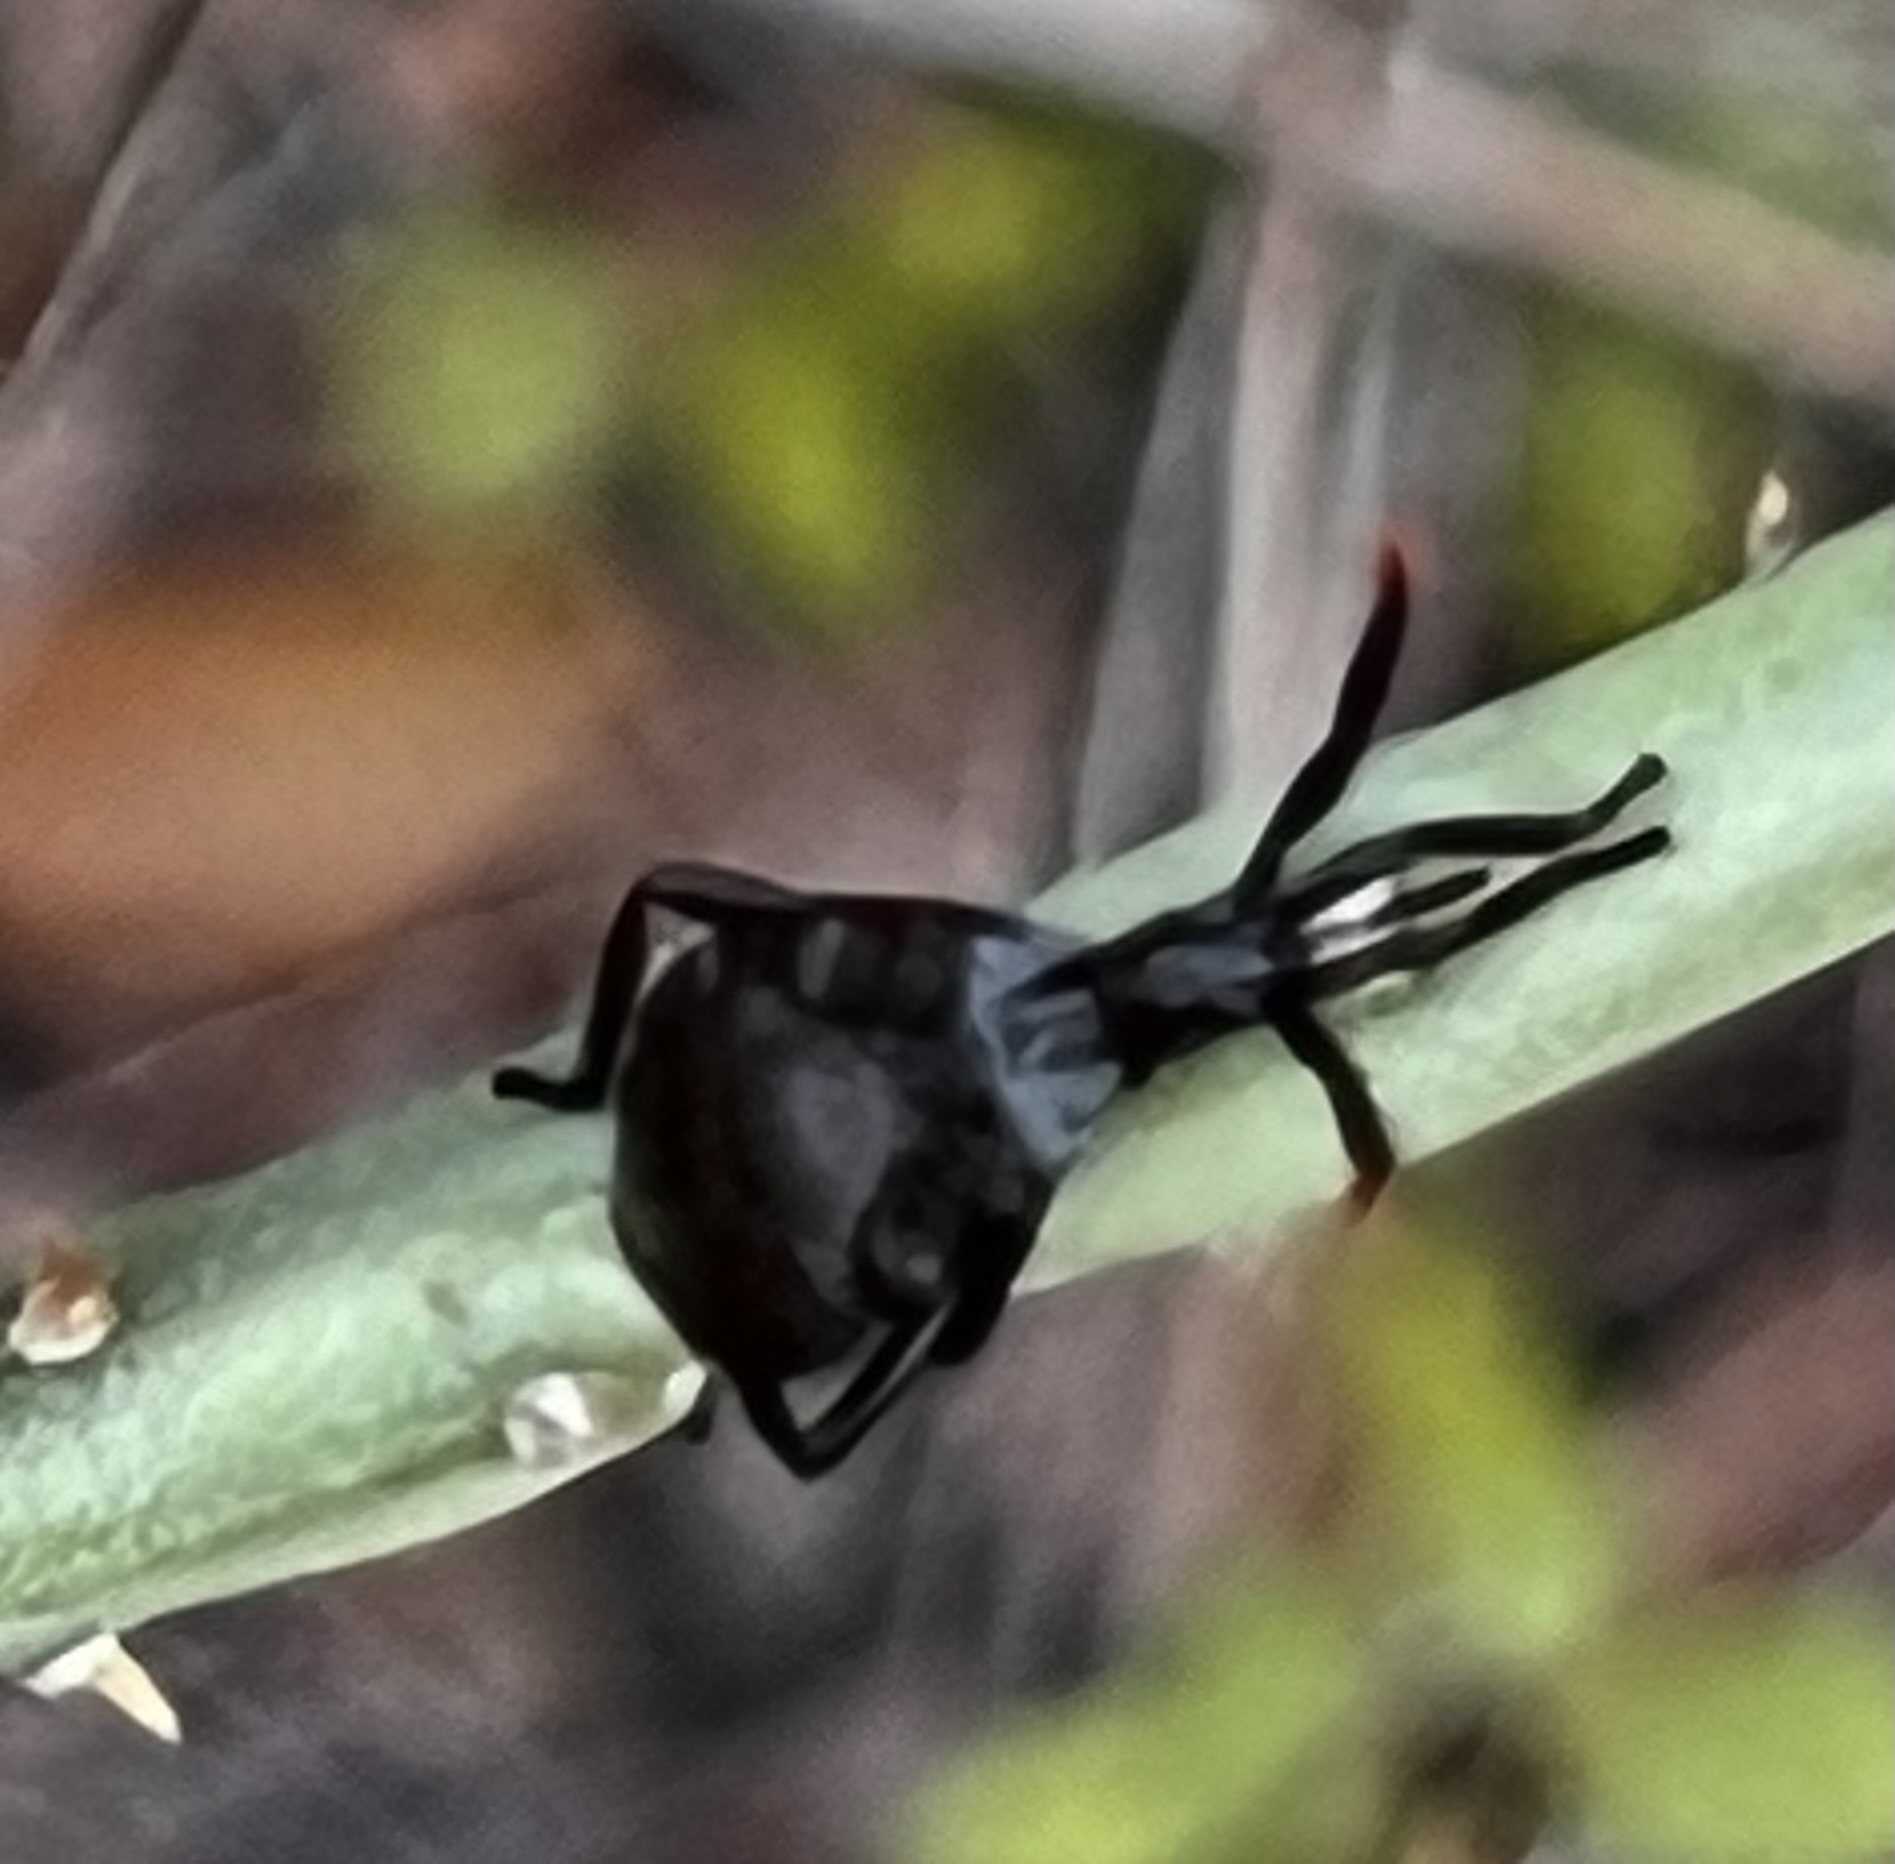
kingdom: Animalia
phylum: Arthropoda
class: Insecta
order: Hemiptera
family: Coreidae
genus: Chelinidea
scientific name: Chelinidea vittiger
